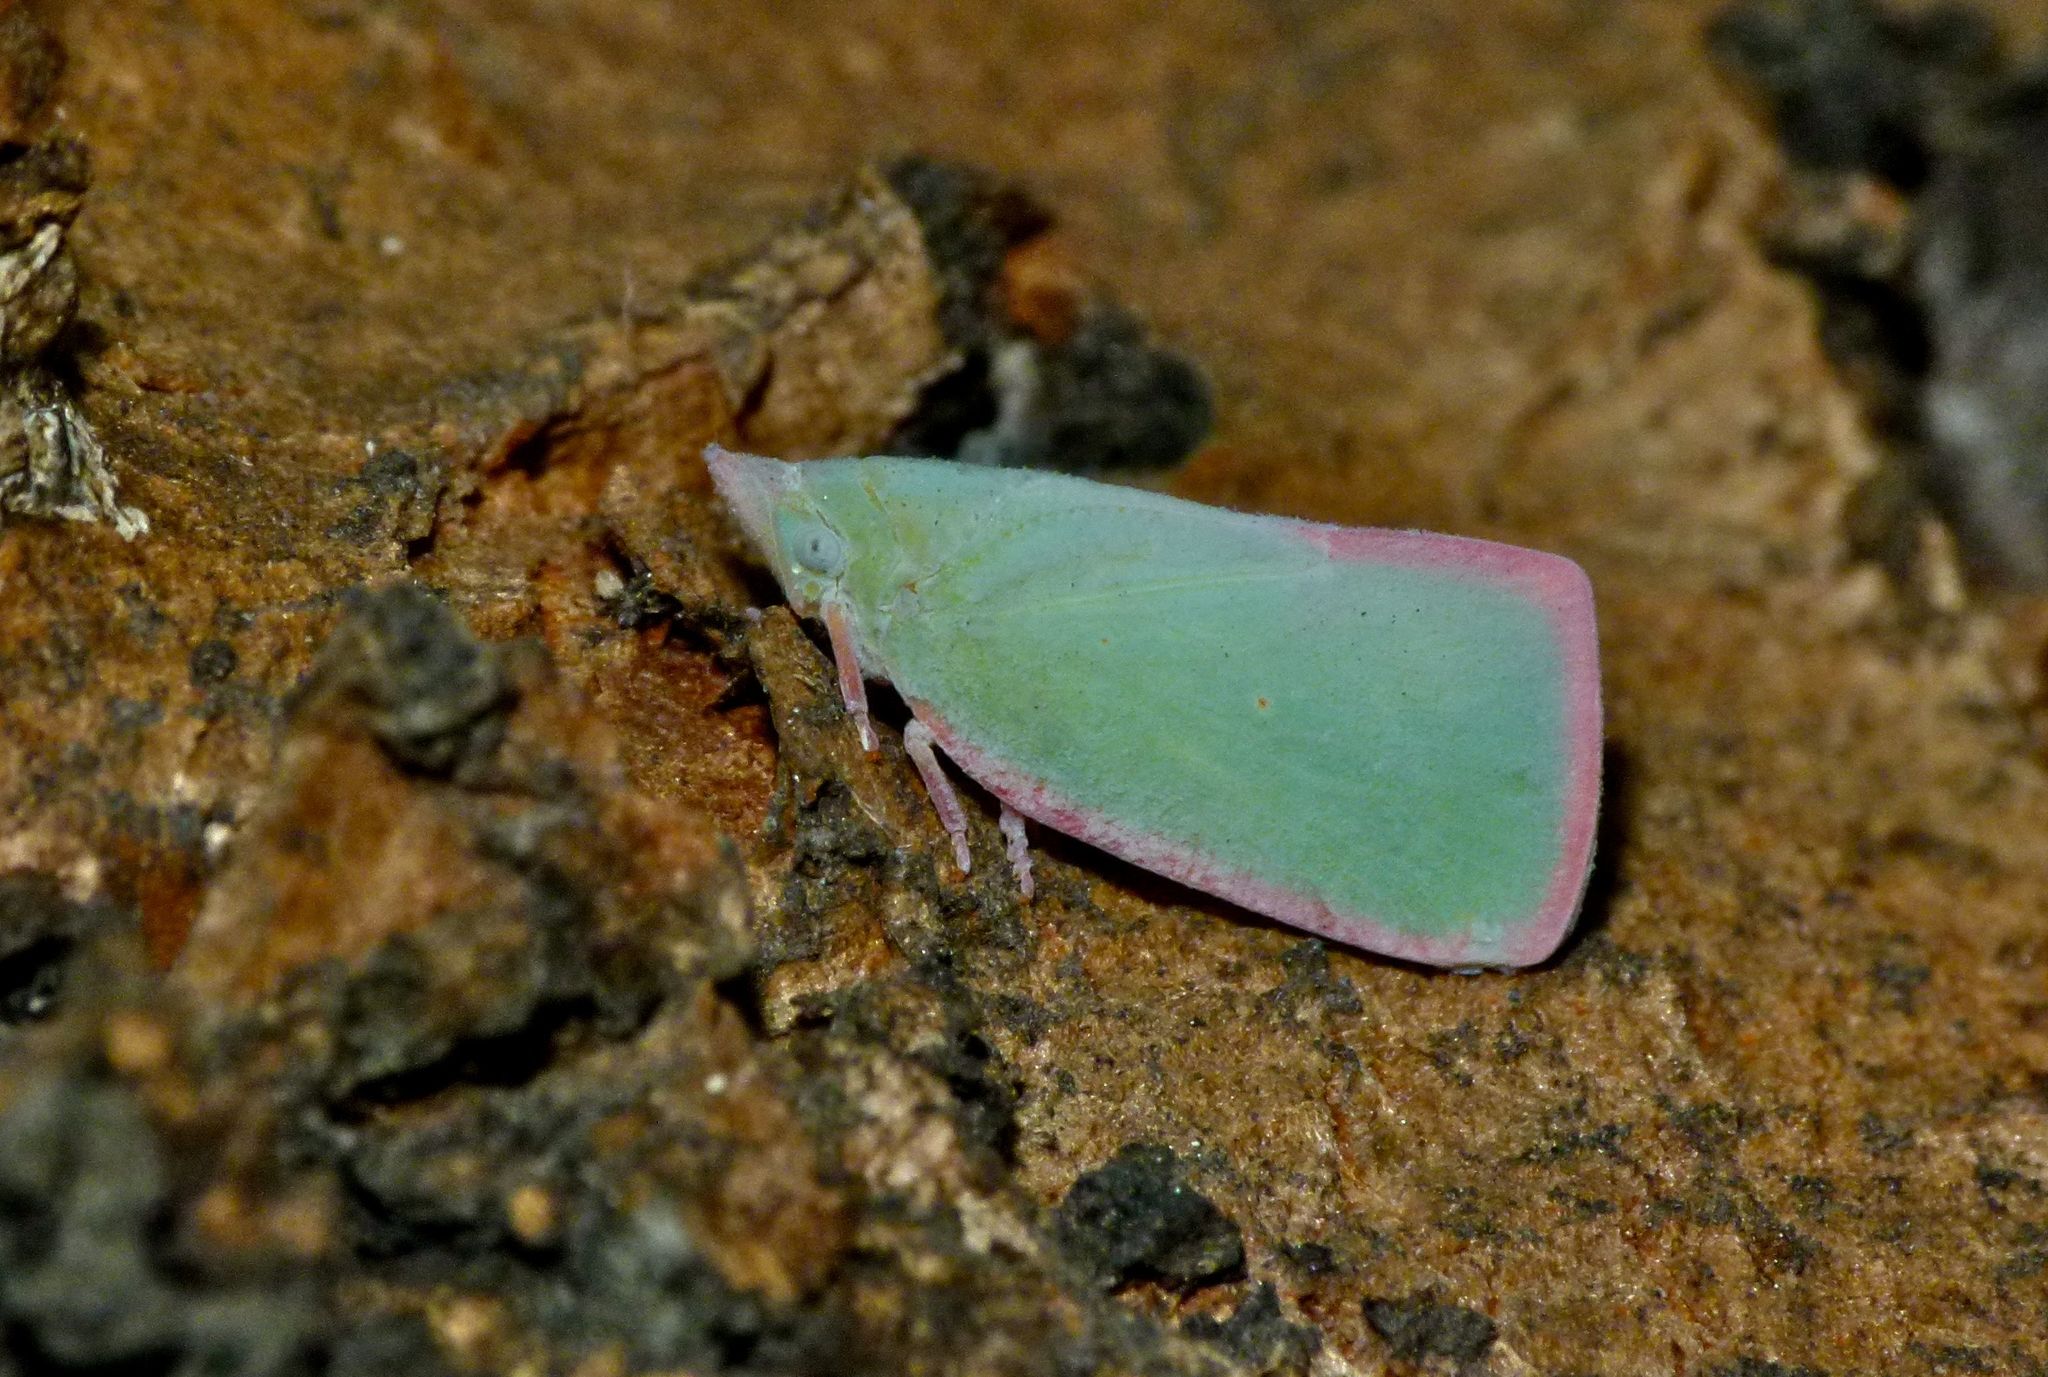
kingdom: Animalia
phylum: Arthropoda
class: Insecta
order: Hemiptera
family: Flatidae
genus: Colgar
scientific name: Colgar peracuta
